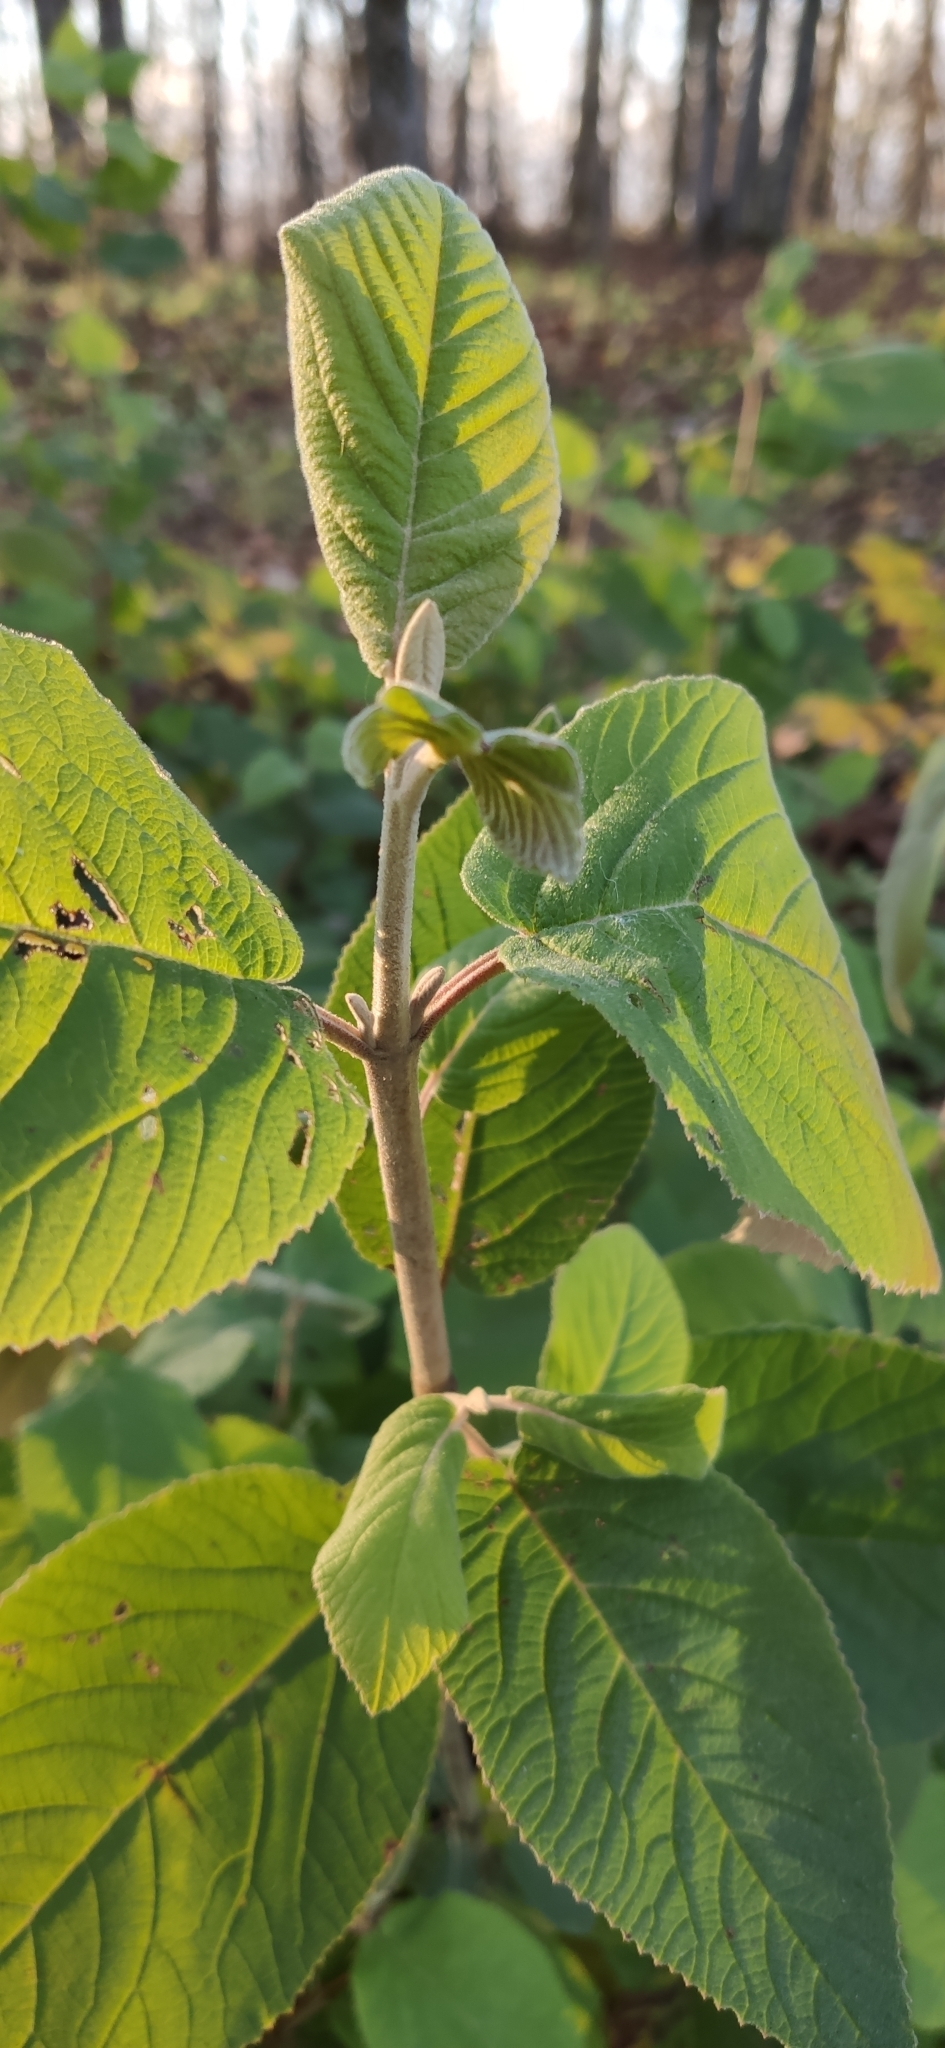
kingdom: Plantae
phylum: Tracheophyta
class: Magnoliopsida
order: Dipsacales
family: Viburnaceae
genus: Viburnum
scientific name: Viburnum lantana
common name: Wayfaring tree
